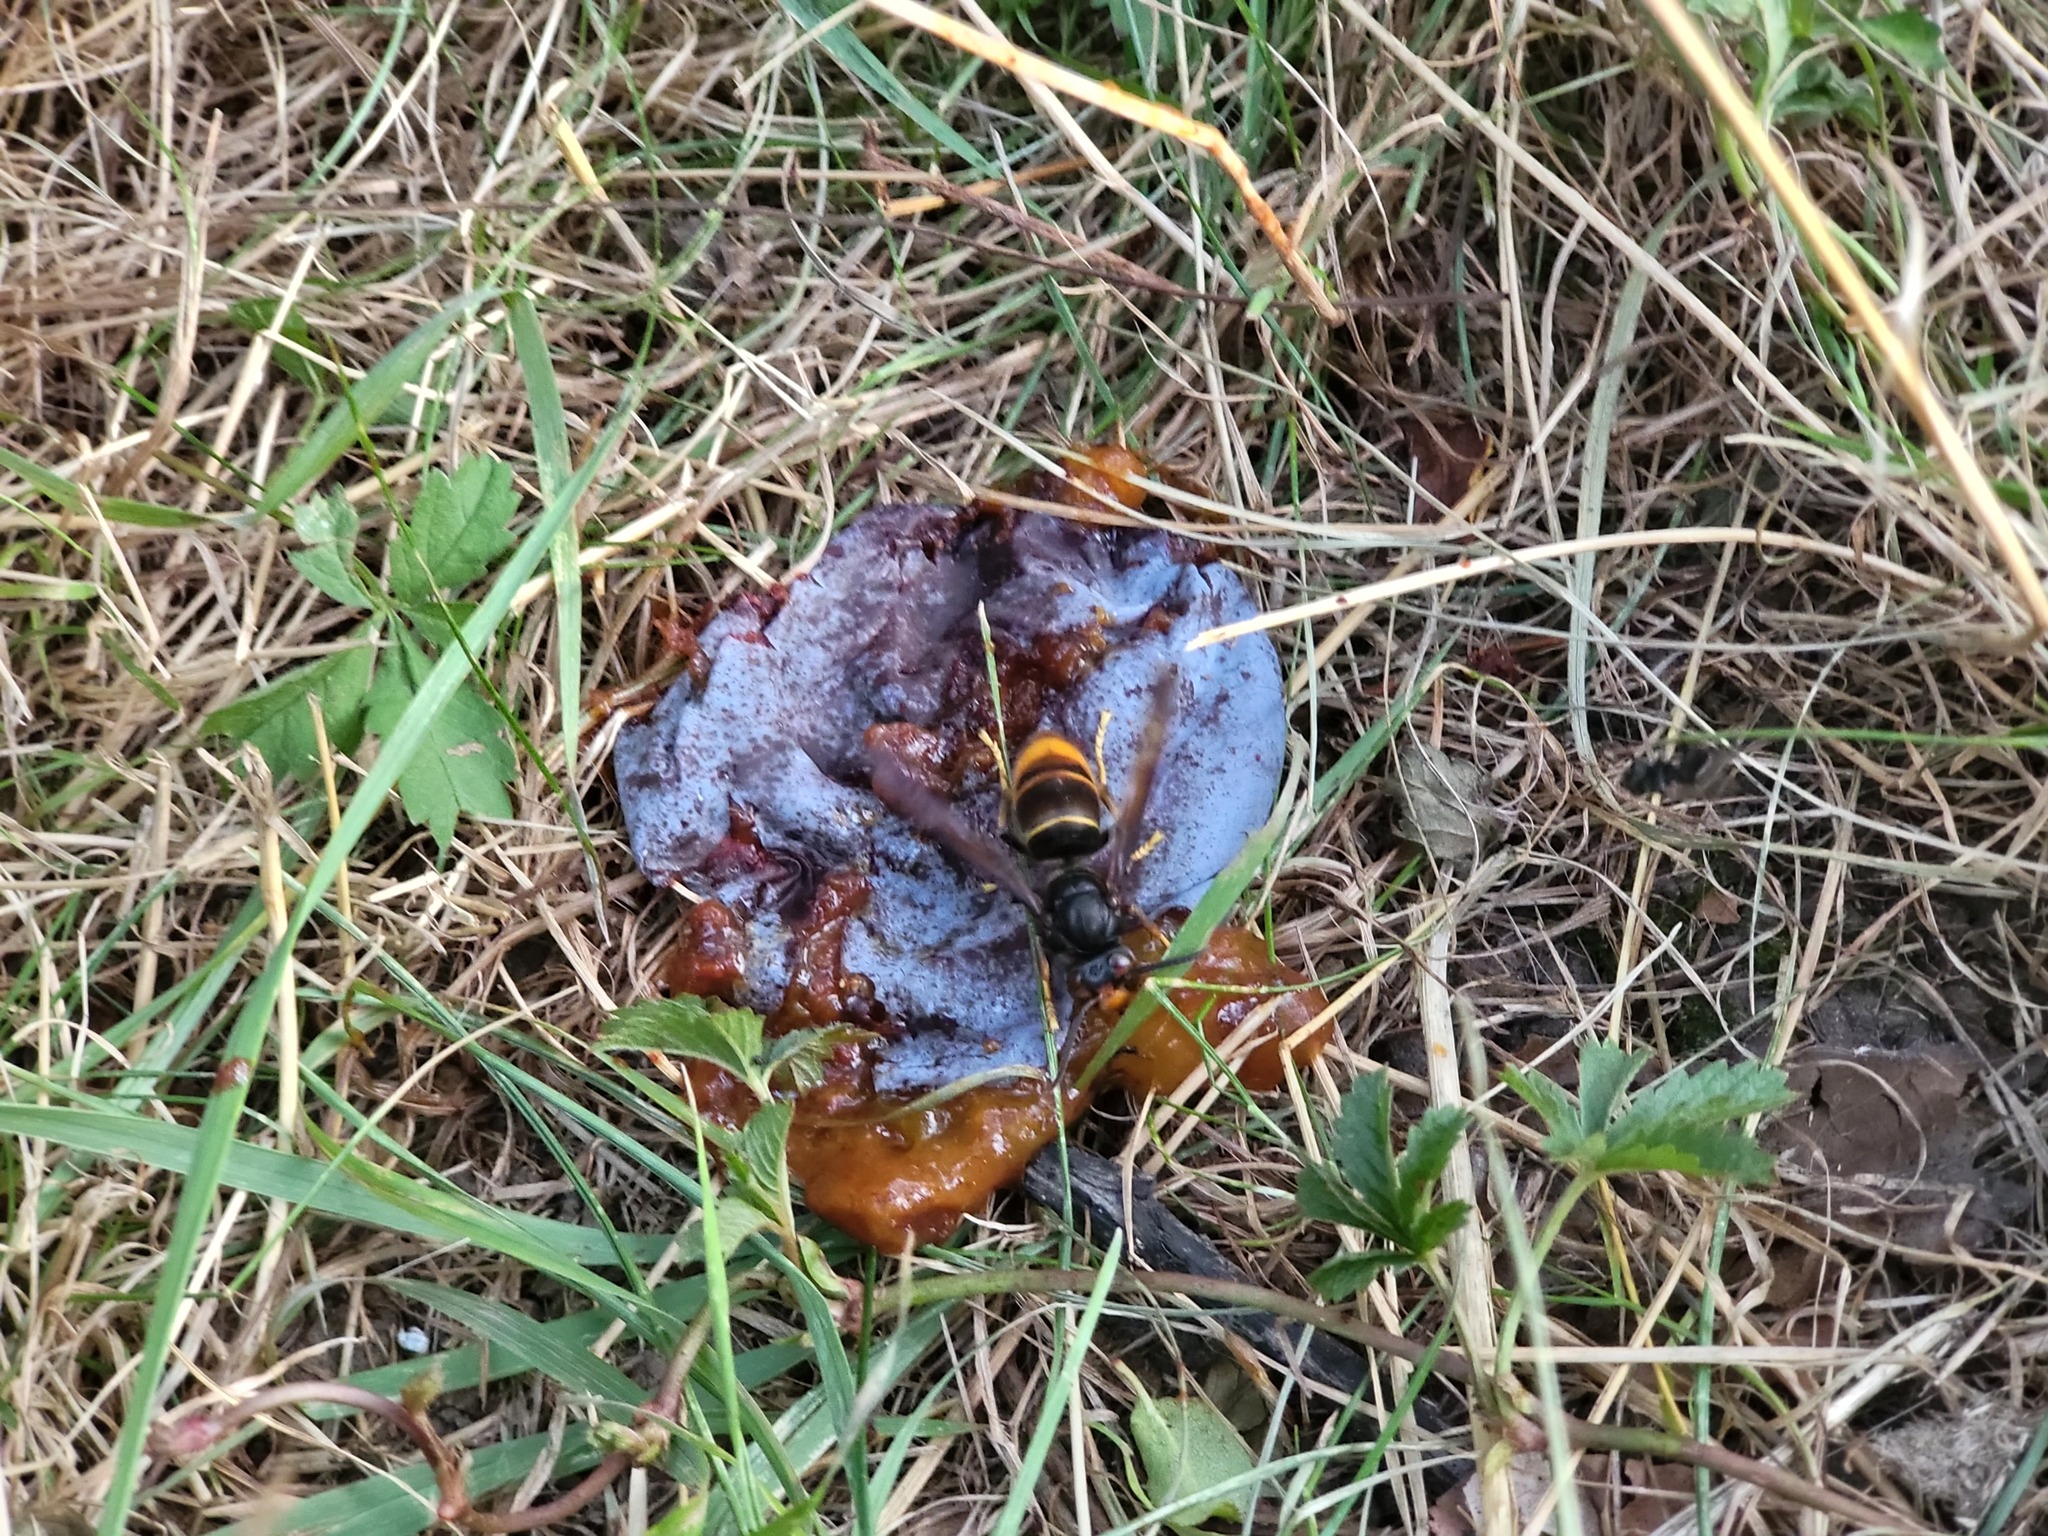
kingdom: Animalia
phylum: Arthropoda
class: Insecta
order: Hymenoptera
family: Vespidae
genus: Vespa
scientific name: Vespa velutina
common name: Asian hornet
